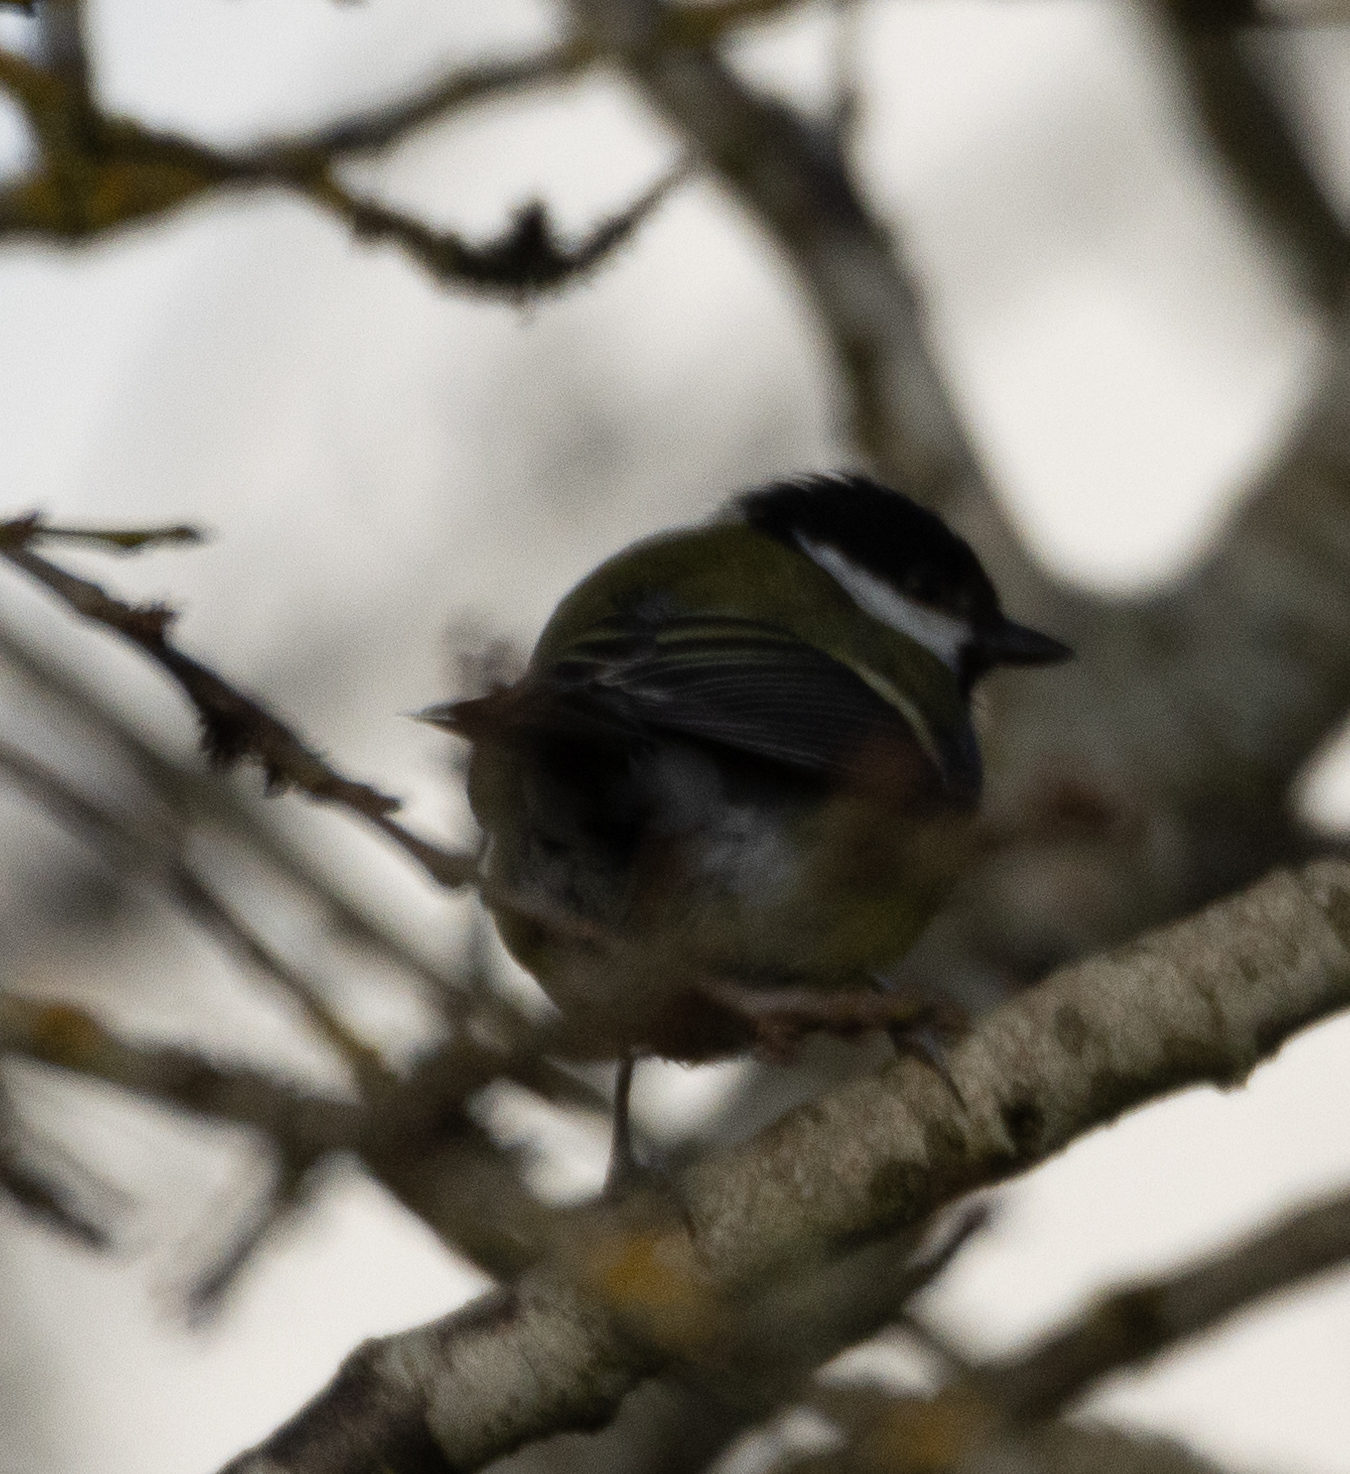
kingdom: Animalia
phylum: Chordata
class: Aves
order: Passeriformes
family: Paridae
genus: Parus
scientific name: Parus major
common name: Great tit
